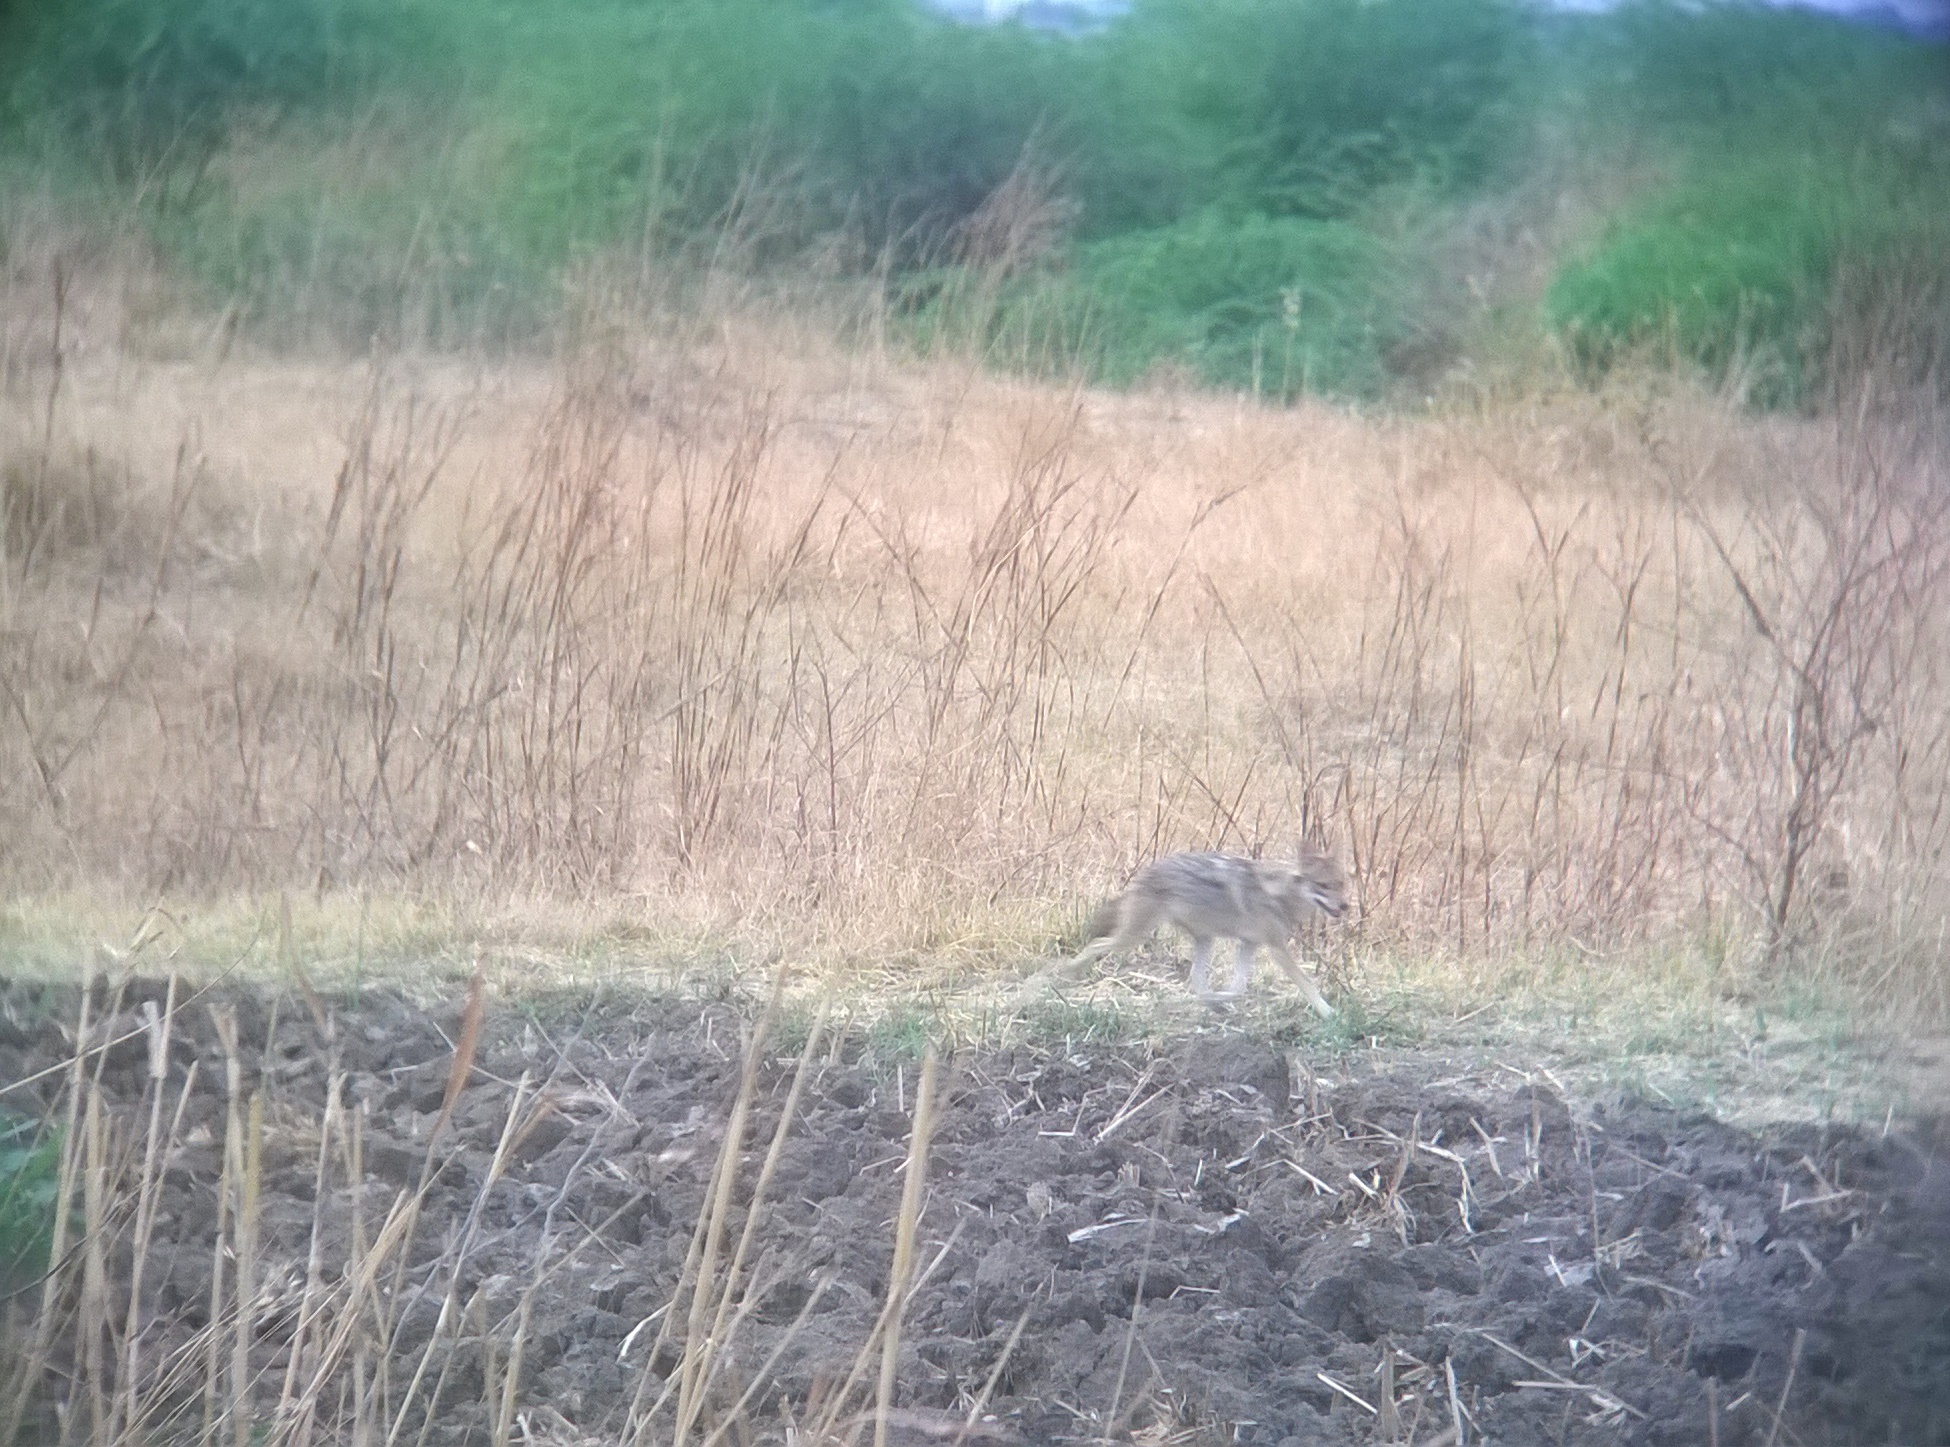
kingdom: Animalia
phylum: Chordata
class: Mammalia
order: Carnivora
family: Canidae
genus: Canis
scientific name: Canis aureus
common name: Golden jackal
